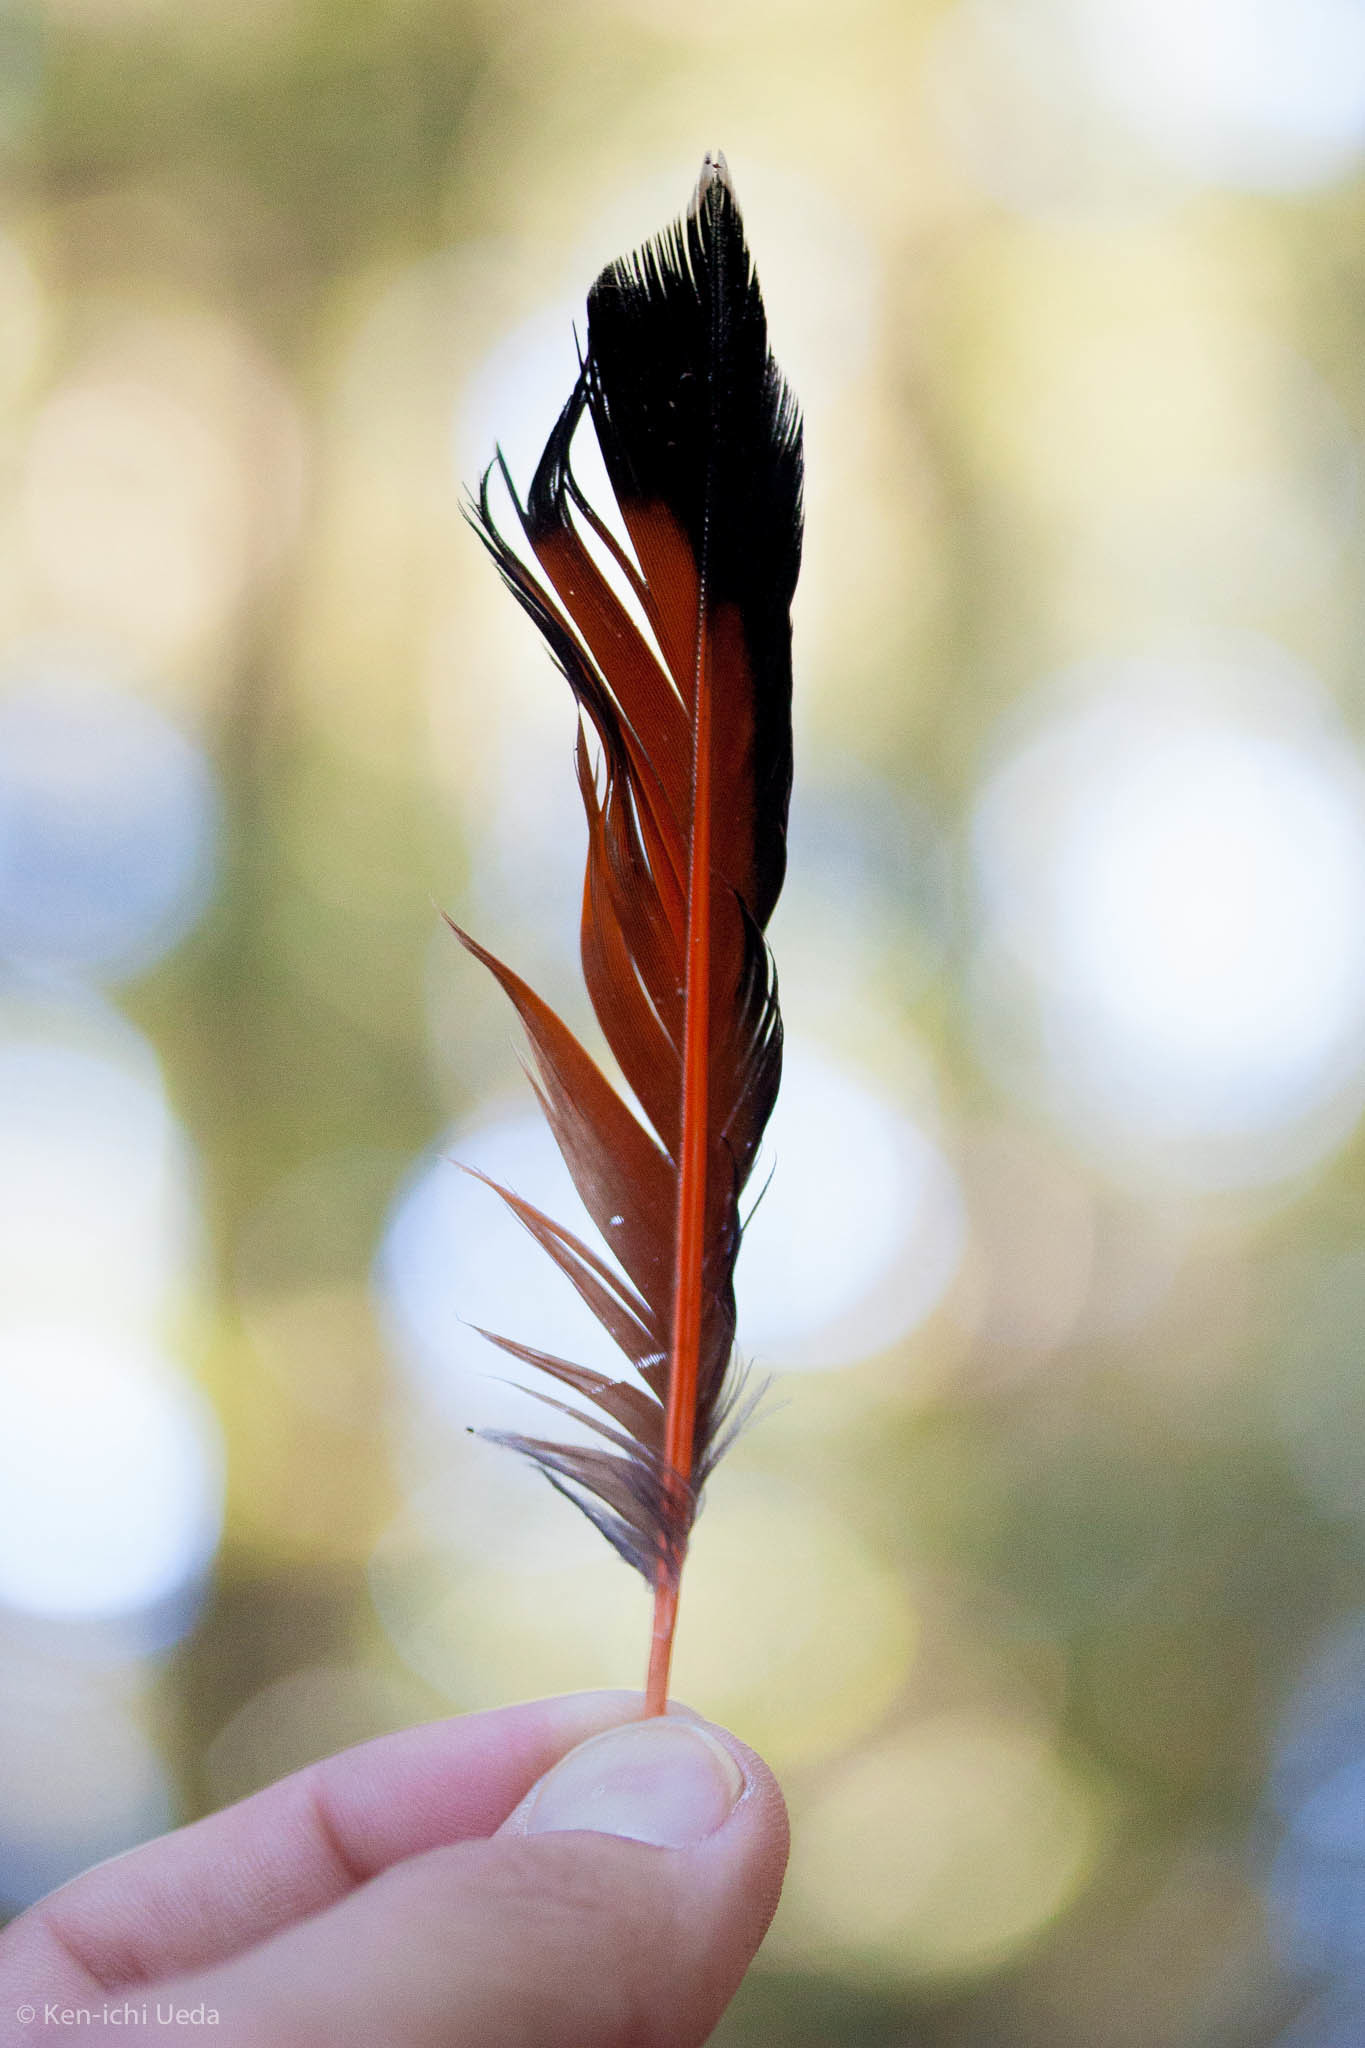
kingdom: Animalia
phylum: Chordata
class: Aves
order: Piciformes
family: Picidae
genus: Colaptes
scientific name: Colaptes auratus
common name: Northern flicker
